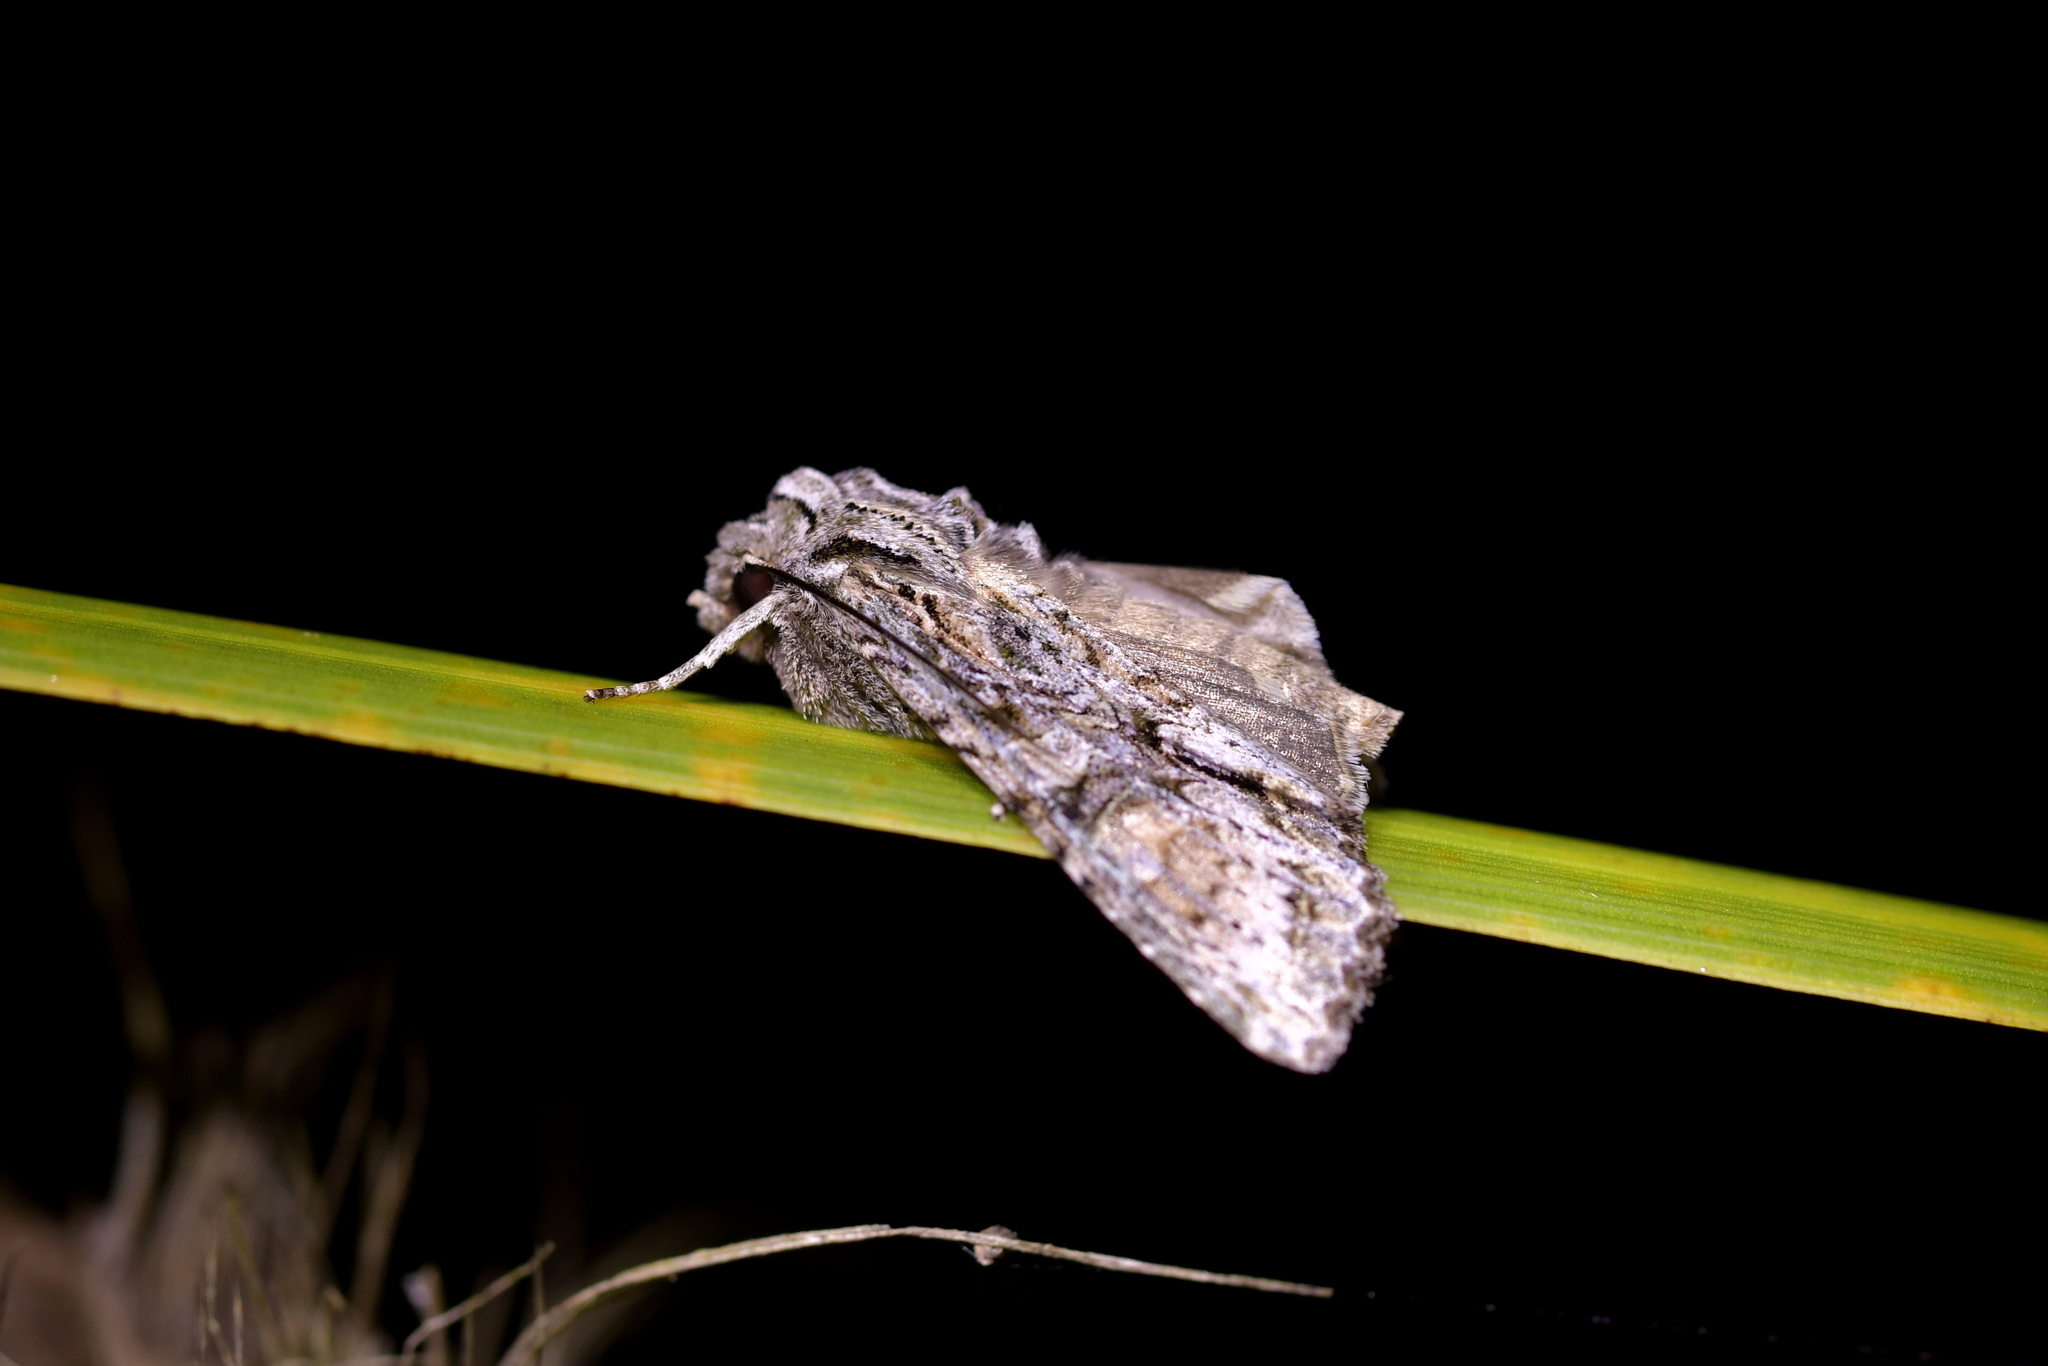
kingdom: Animalia
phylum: Arthropoda
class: Insecta
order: Lepidoptera
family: Noctuidae
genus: Ichneutica
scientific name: Ichneutica mutans
